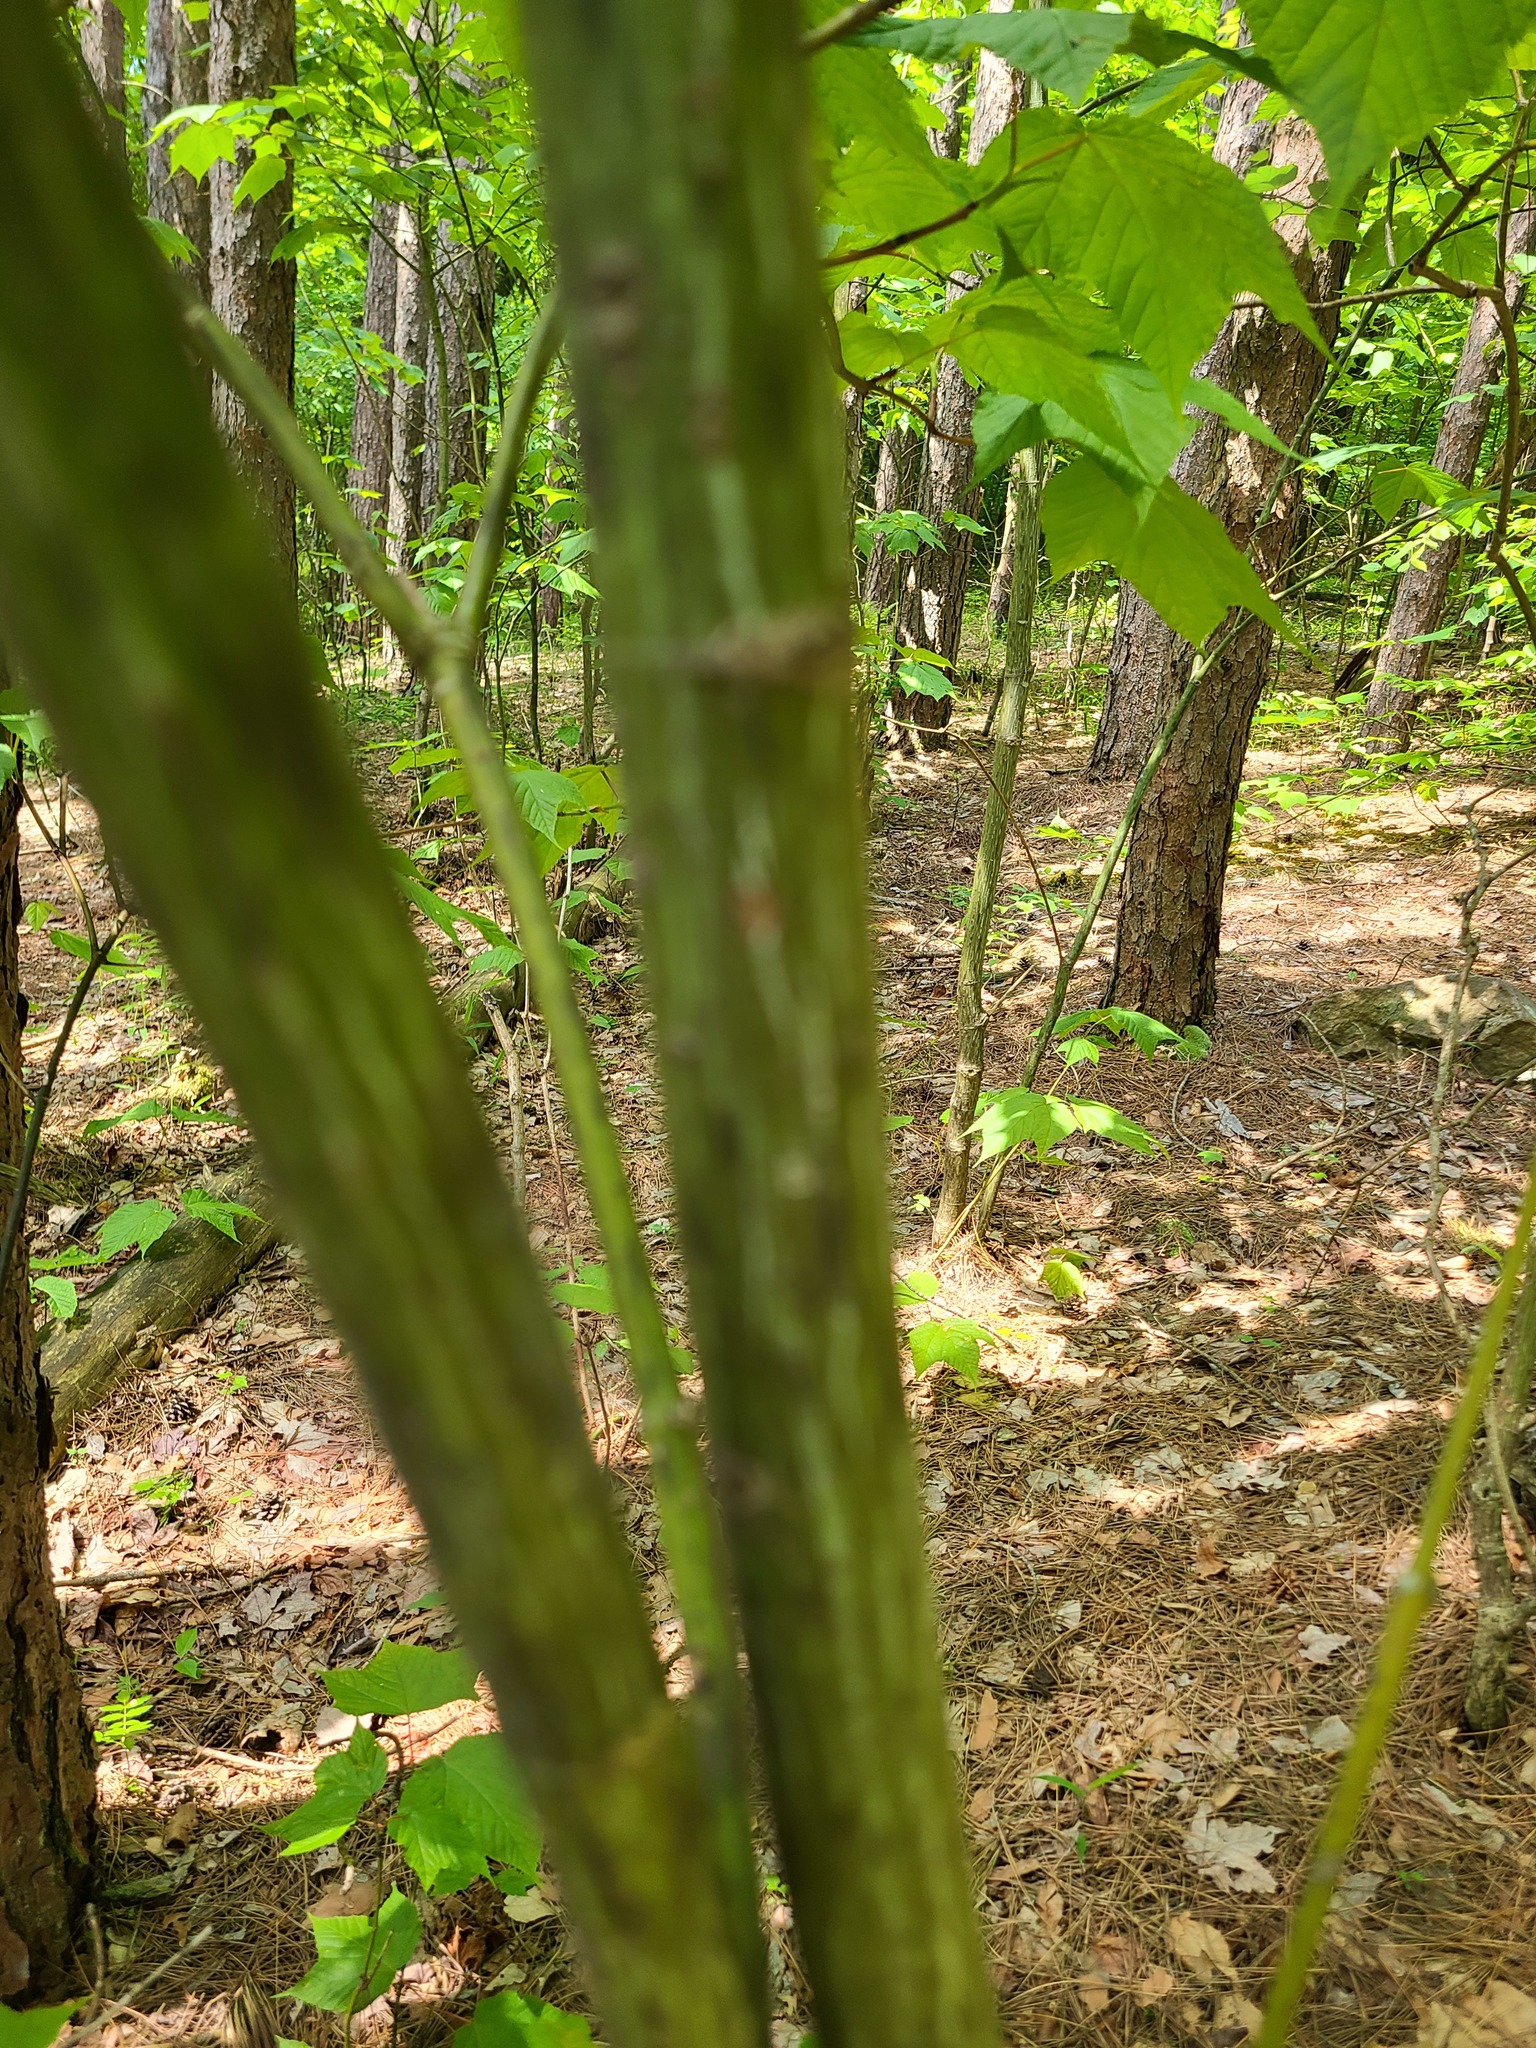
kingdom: Plantae
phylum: Tracheophyta
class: Magnoliopsida
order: Sapindales
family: Sapindaceae
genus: Acer
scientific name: Acer pensylvanicum
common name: Moosewood
